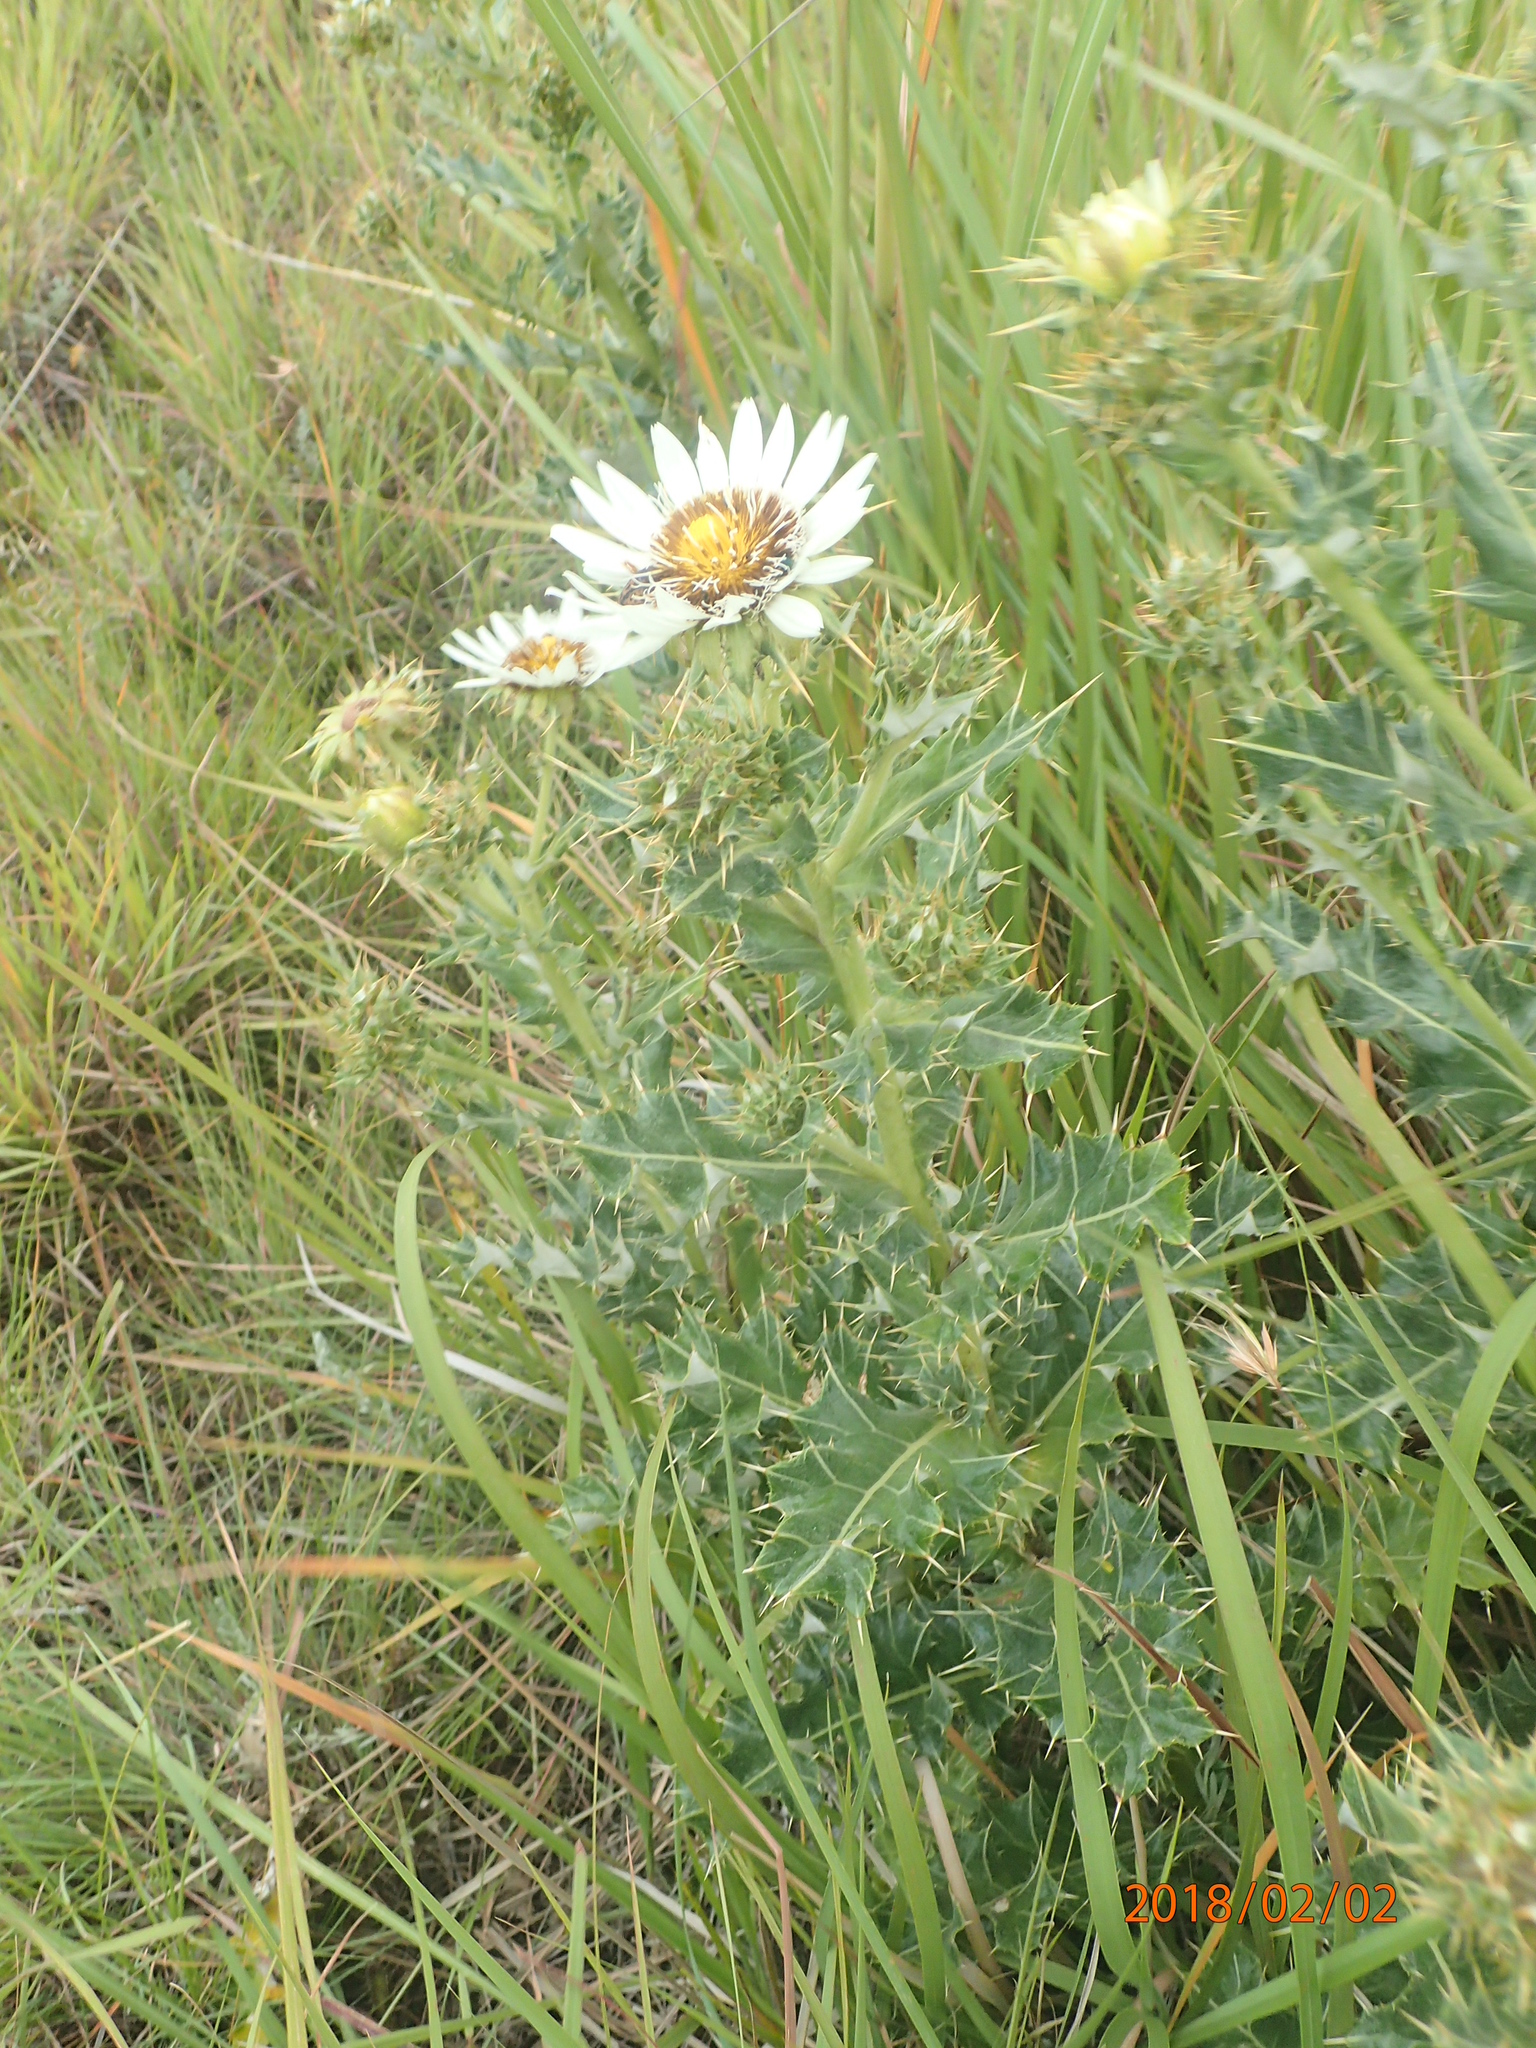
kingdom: Plantae
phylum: Tracheophyta
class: Magnoliopsida
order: Asterales
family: Asteraceae
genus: Berkheya
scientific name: Berkheya cirsiifolia
